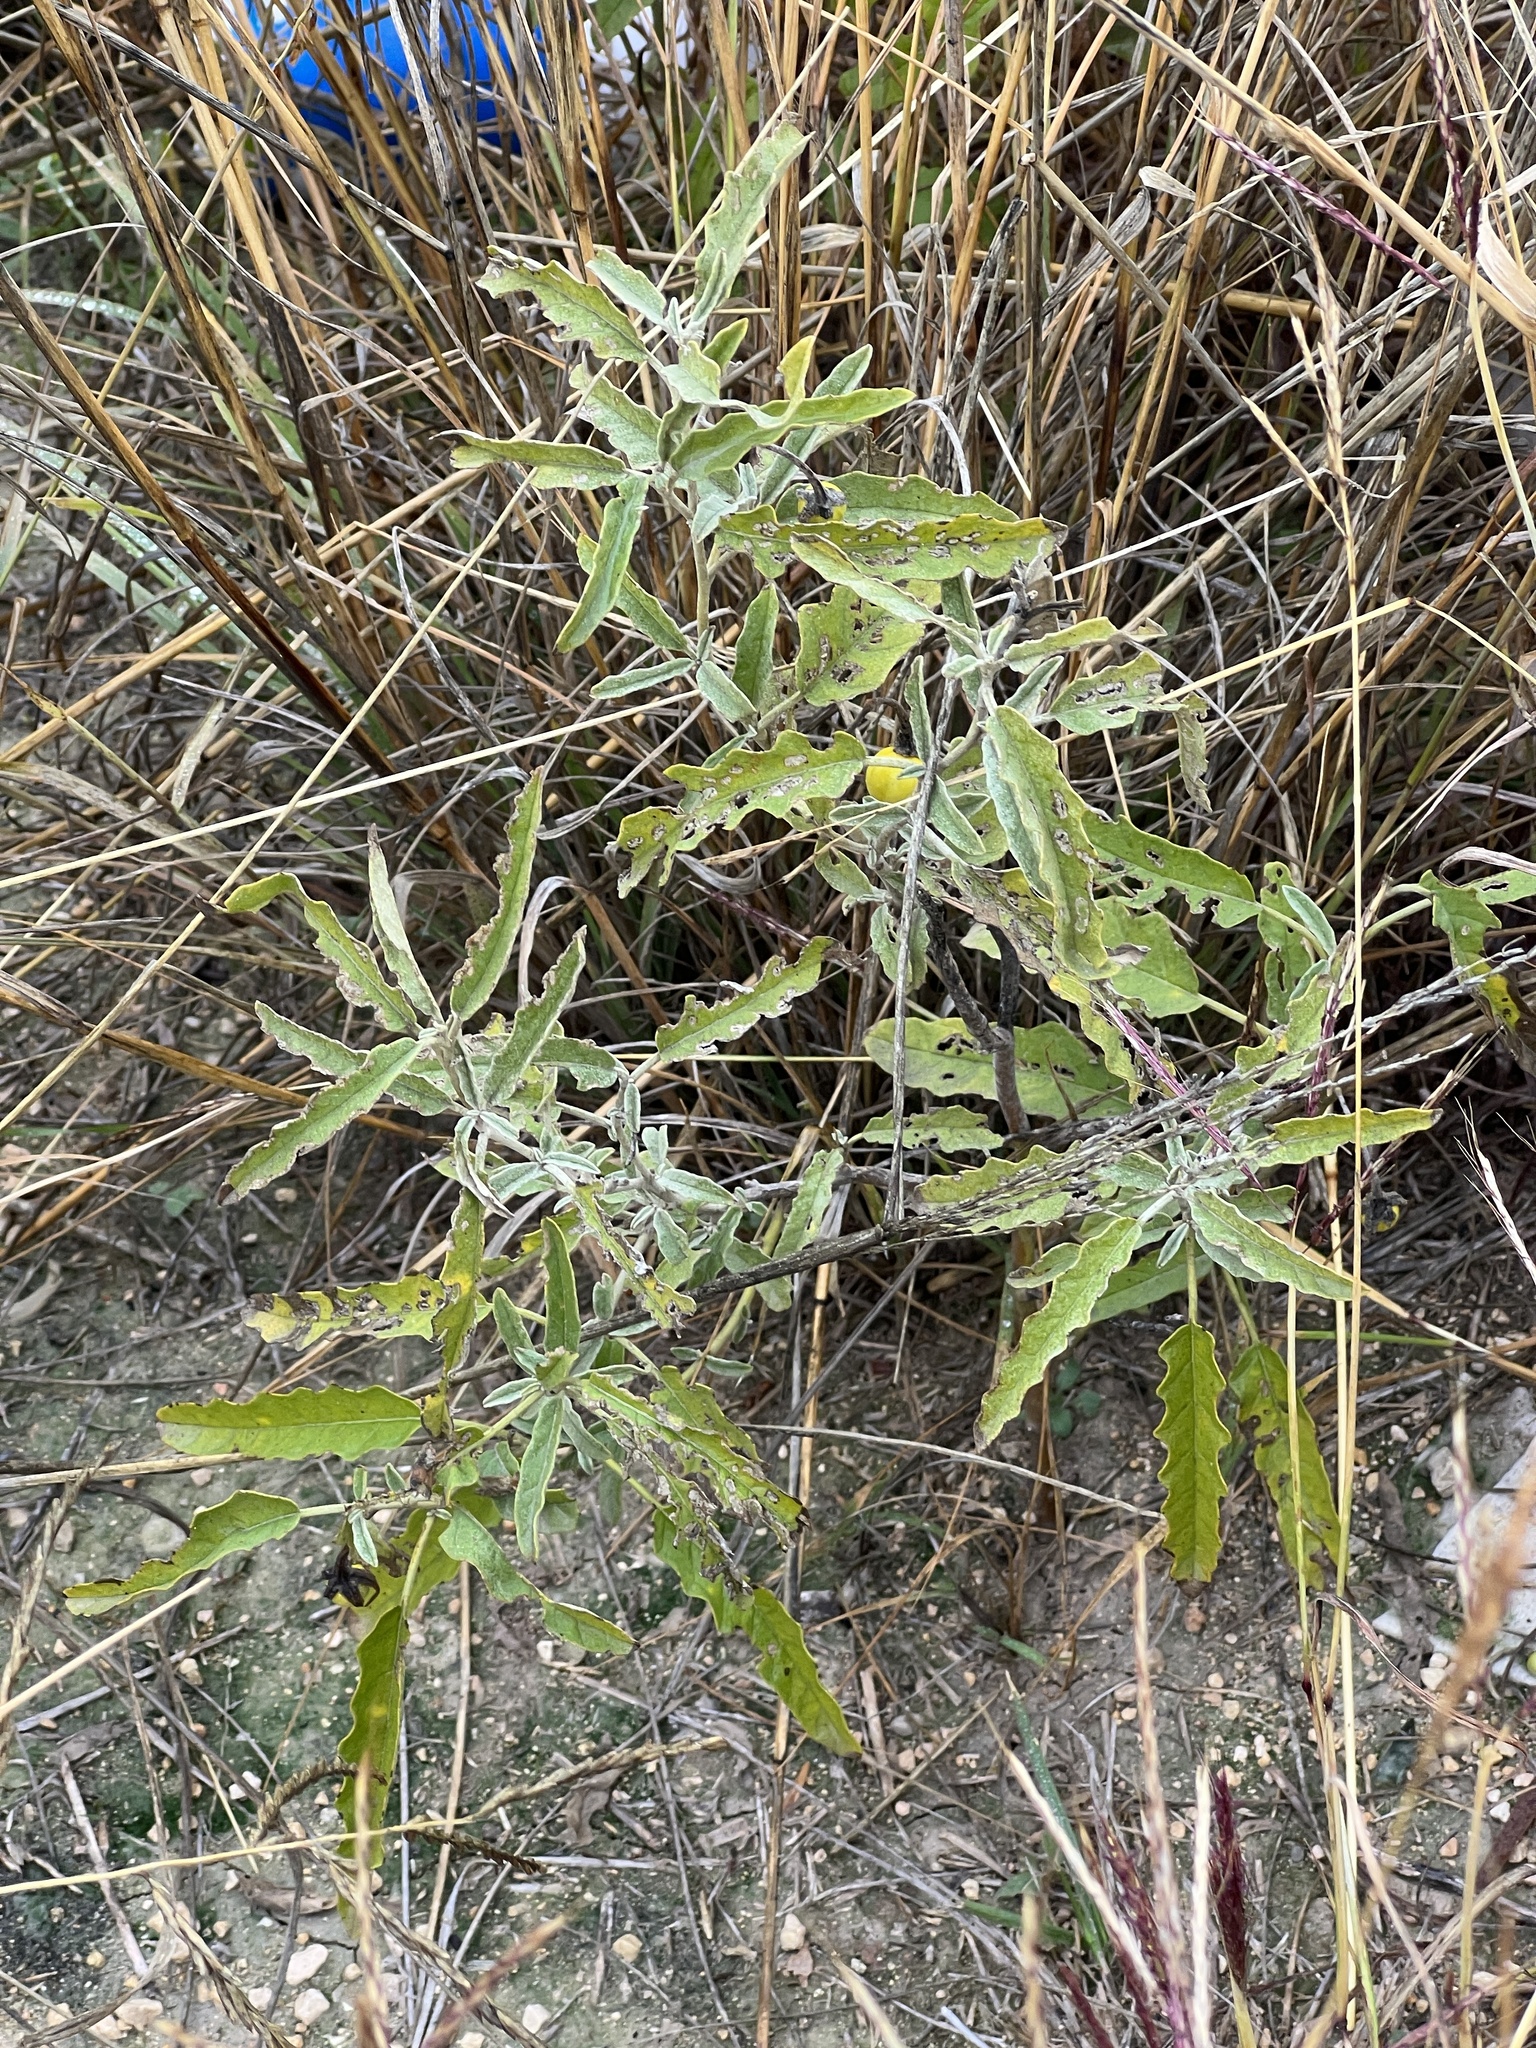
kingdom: Plantae
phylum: Tracheophyta
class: Magnoliopsida
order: Solanales
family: Solanaceae
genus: Solanum
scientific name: Solanum elaeagnifolium
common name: Silverleaf nightshade
